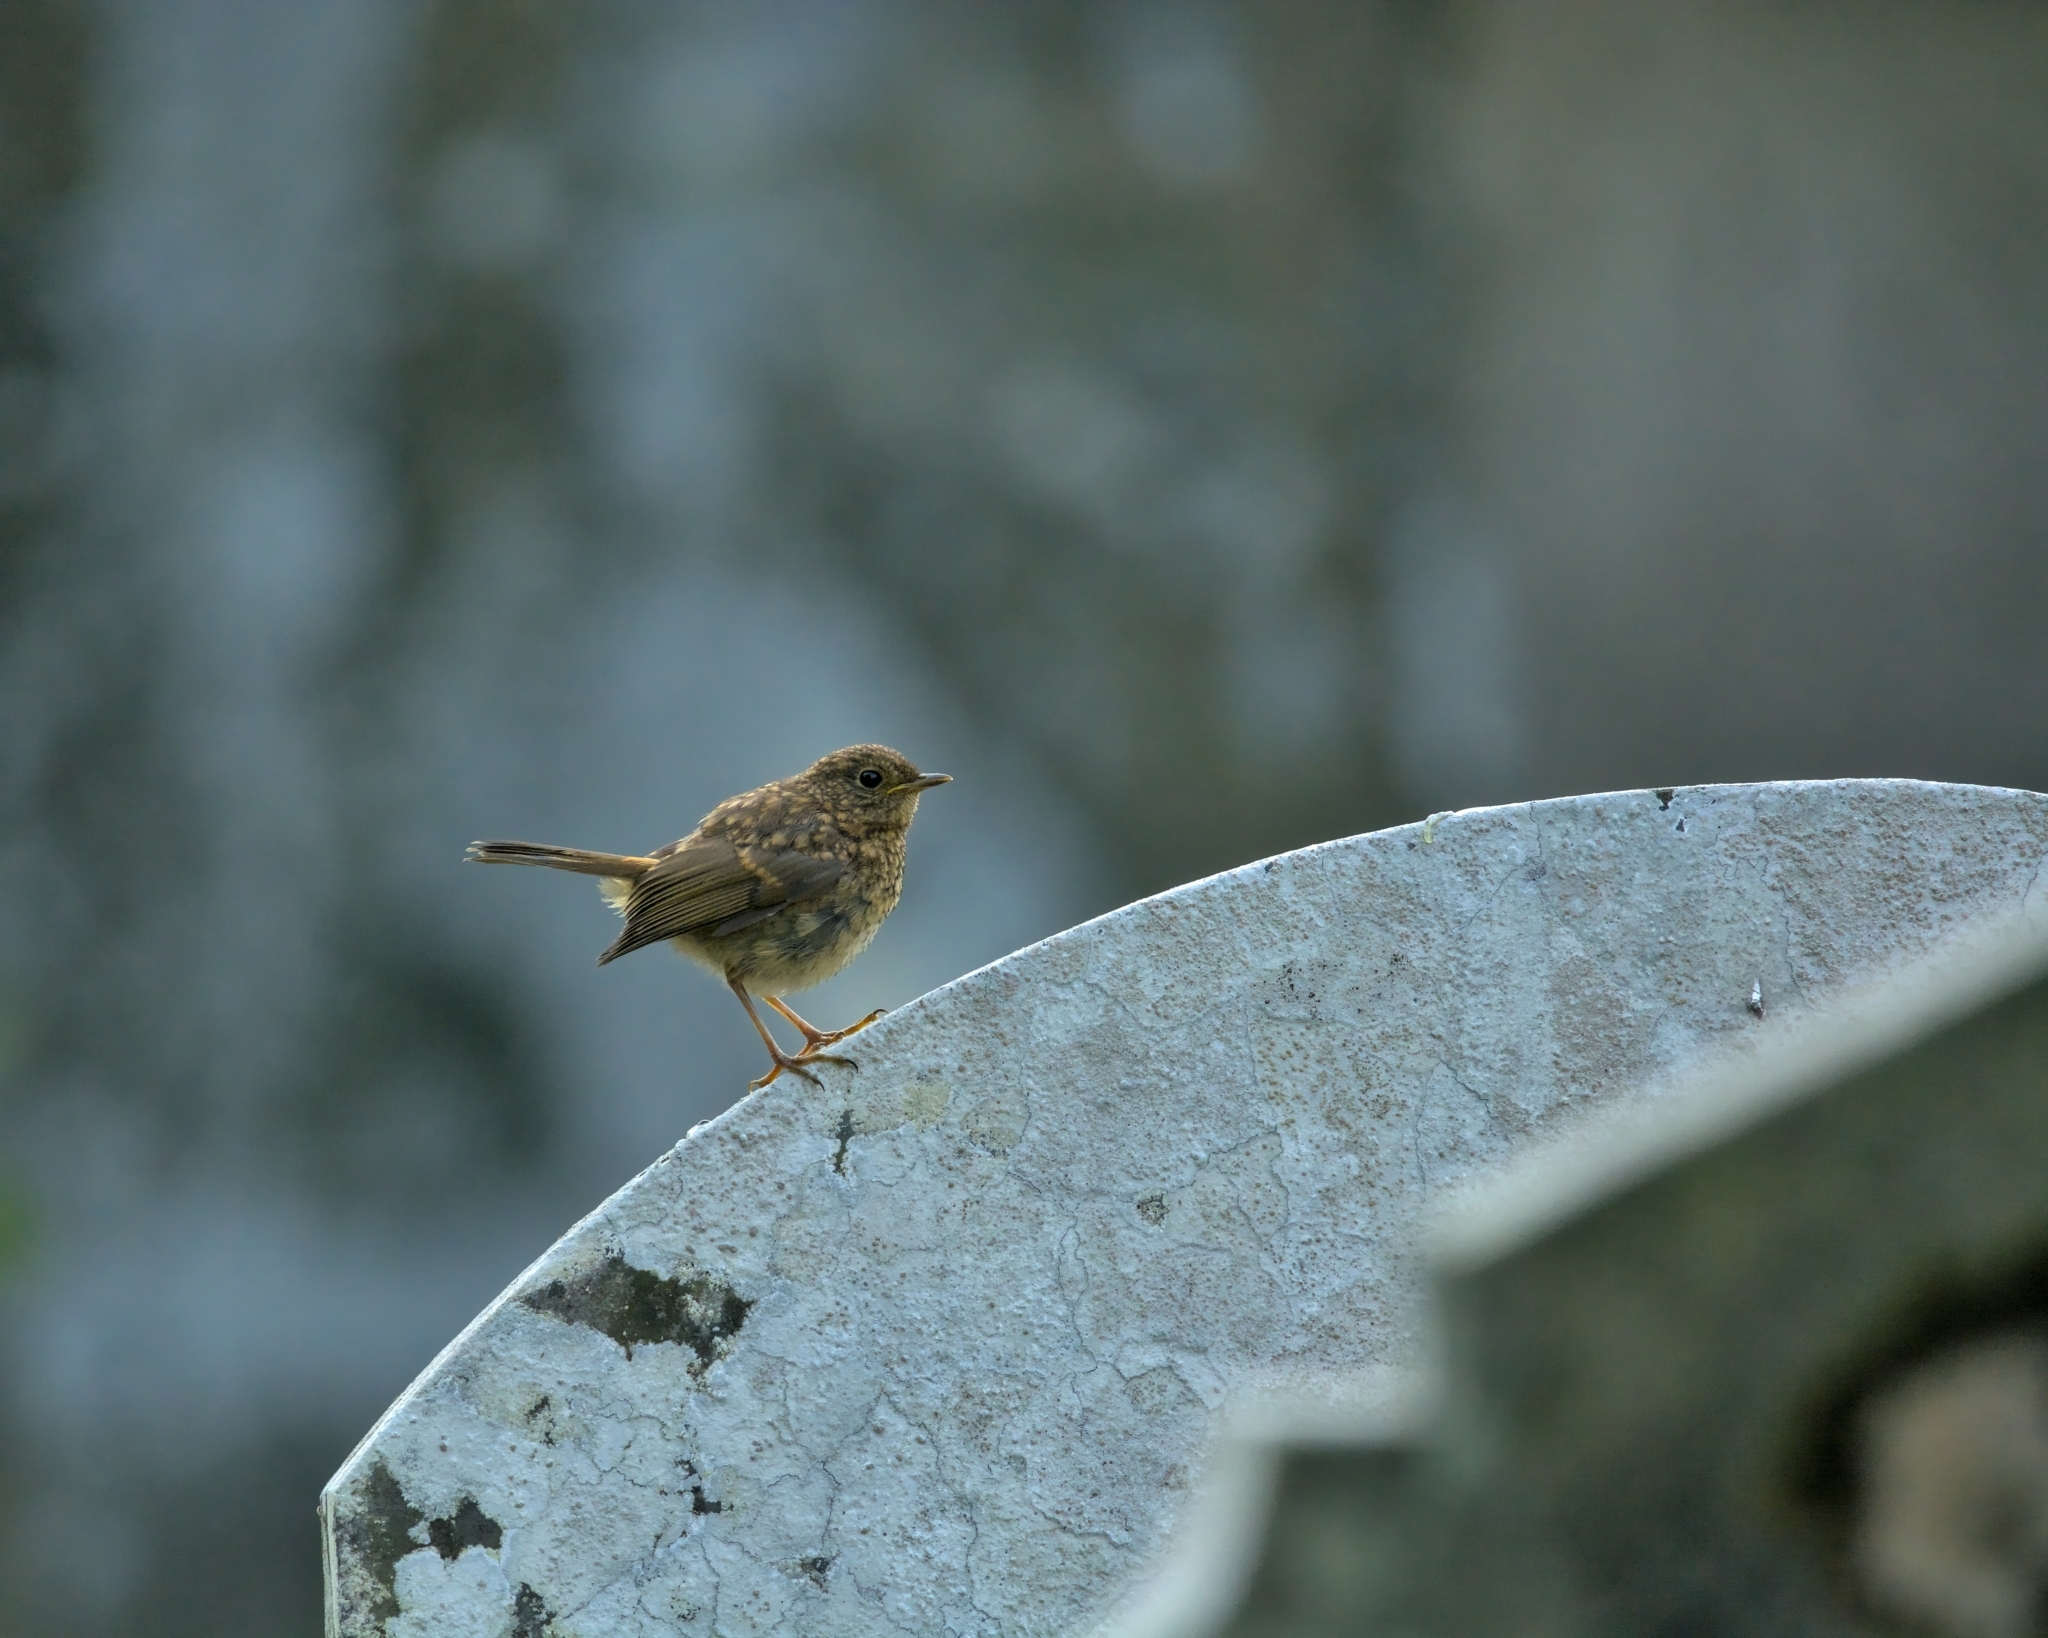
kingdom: Animalia
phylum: Chordata
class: Aves
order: Passeriformes
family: Muscicapidae
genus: Erithacus
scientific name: Erithacus rubecula
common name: European robin
